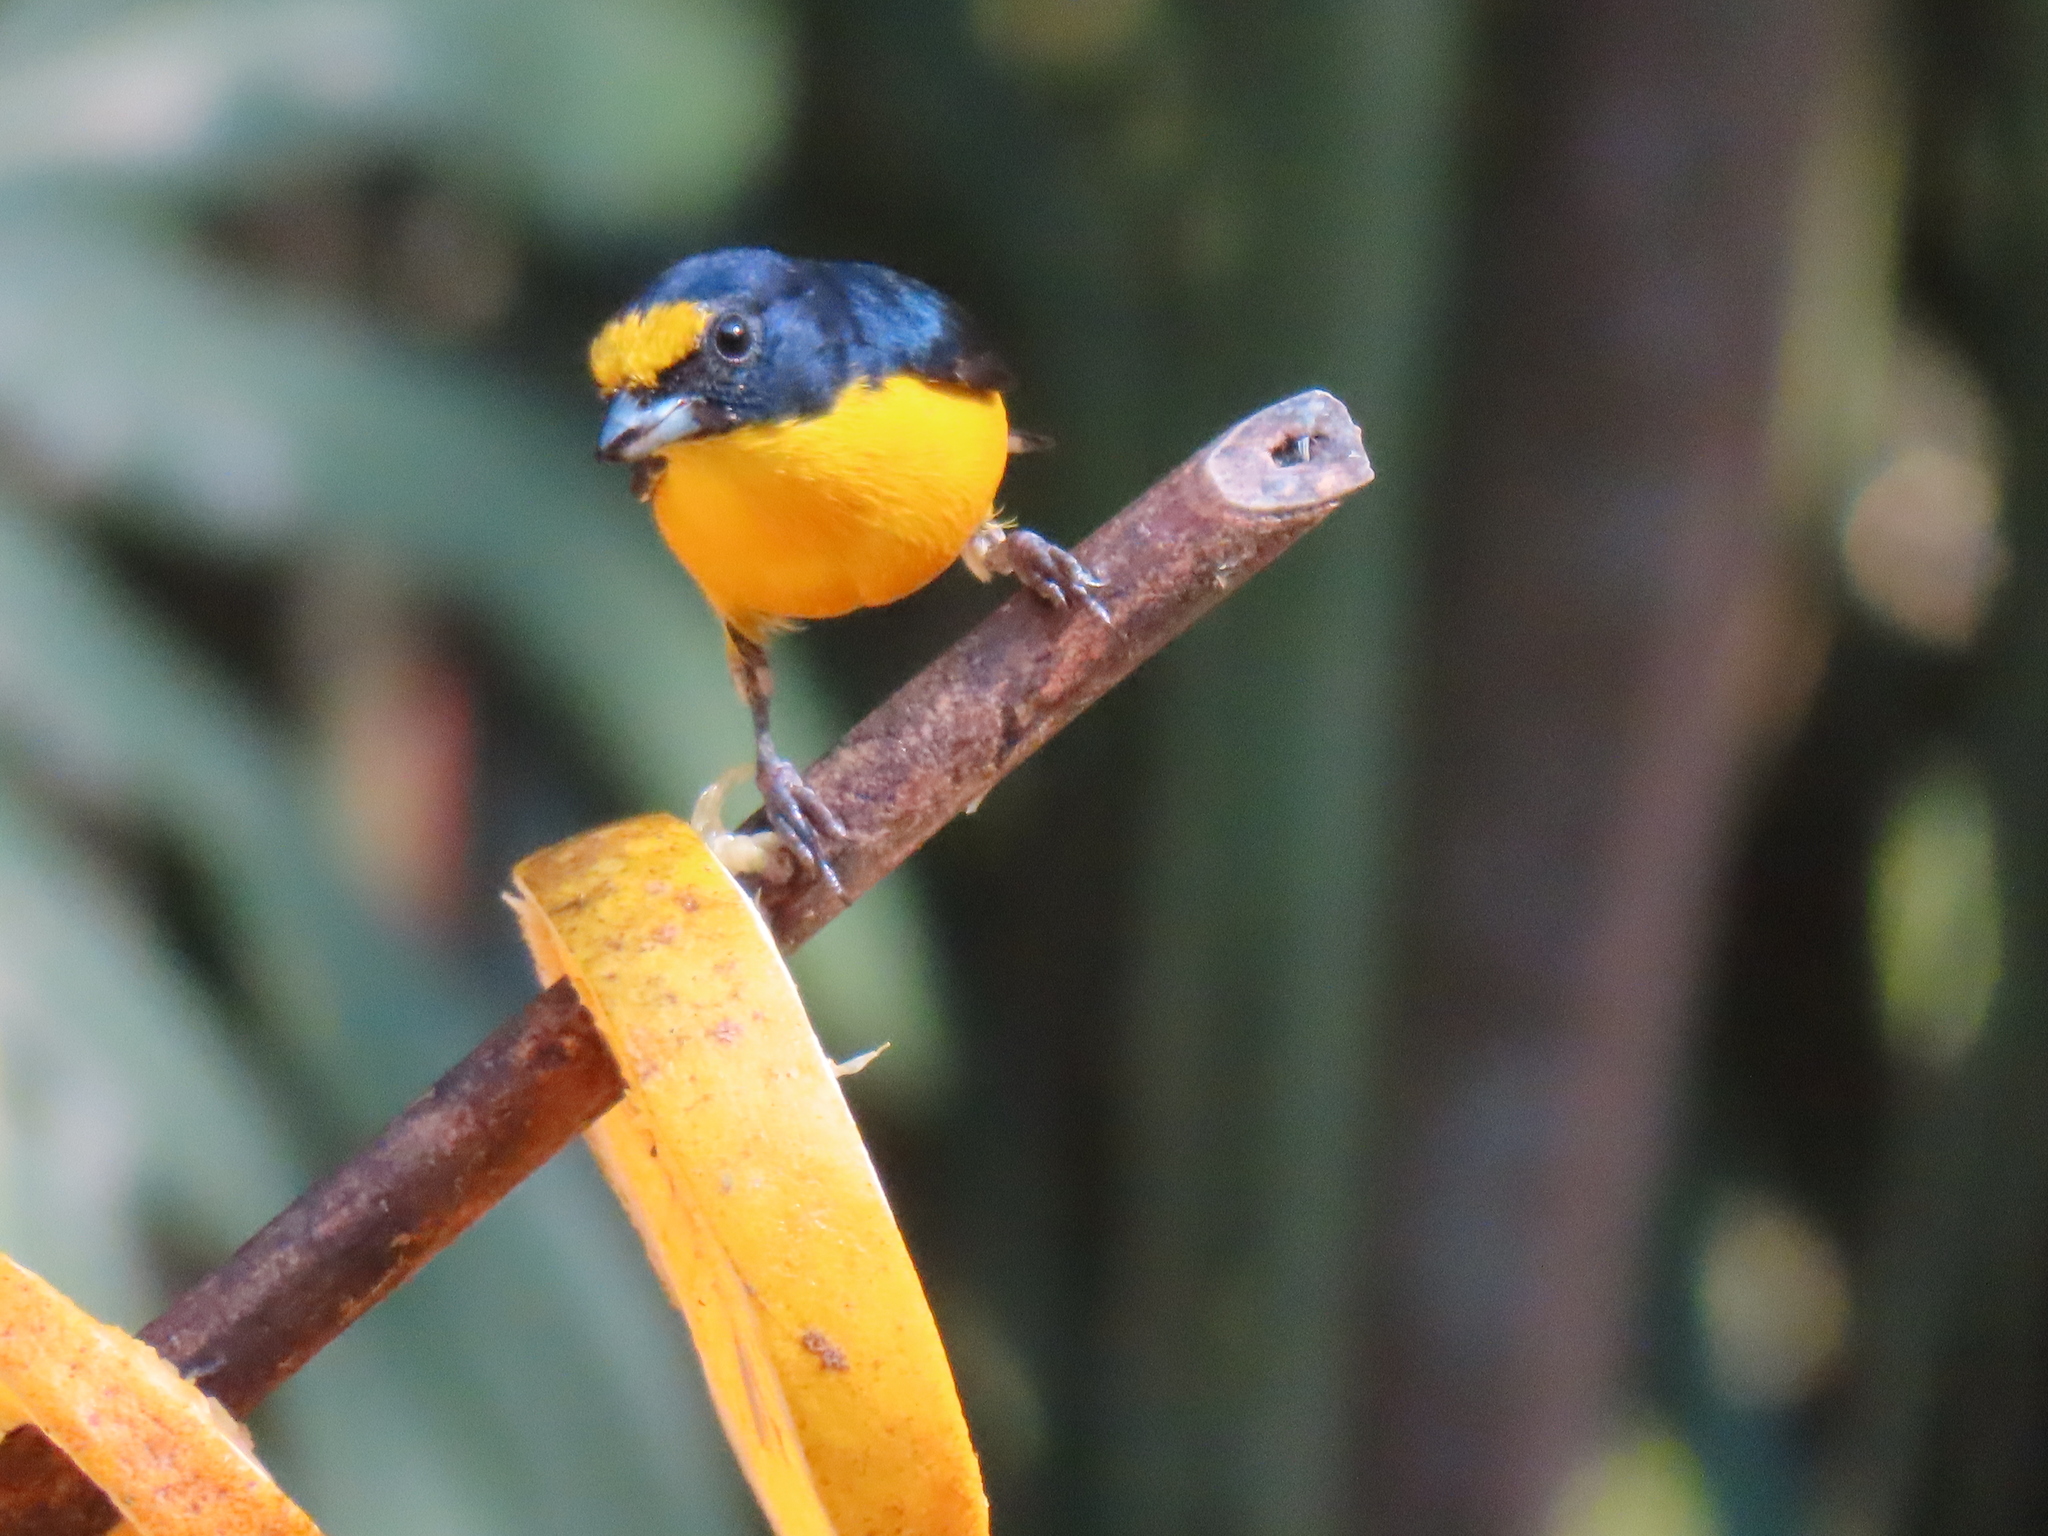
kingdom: Animalia
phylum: Chordata
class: Aves
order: Passeriformes
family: Fringillidae
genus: Euphonia
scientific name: Euphonia hirundinacea
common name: Yellow-throated euphonia
